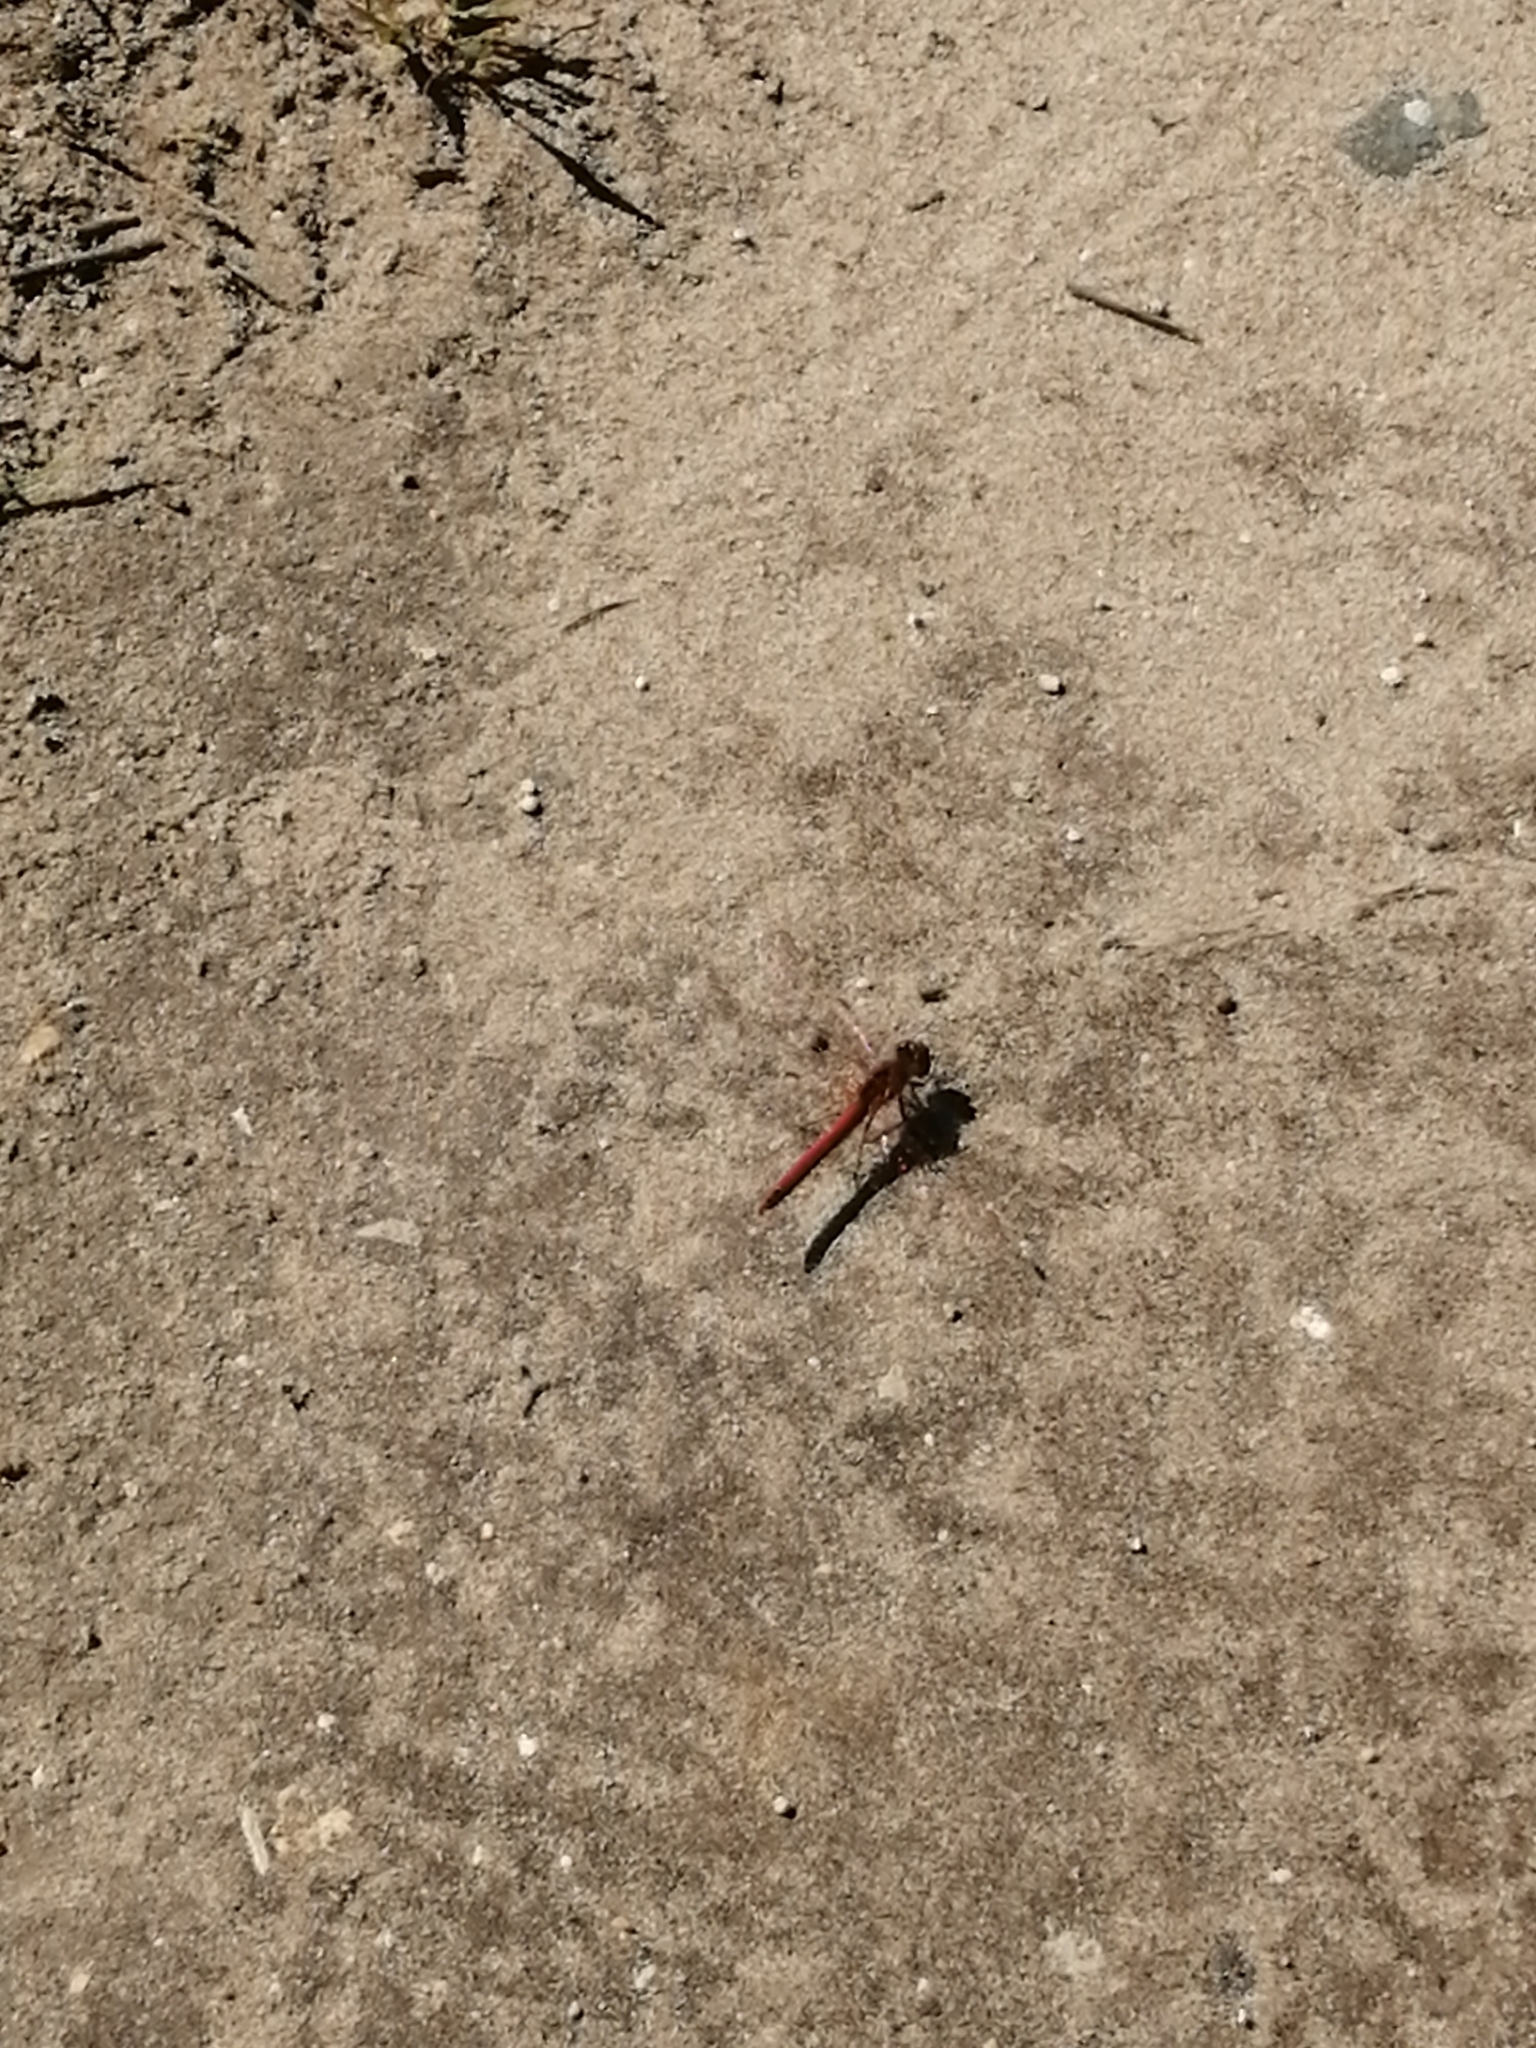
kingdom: Animalia
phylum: Arthropoda
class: Insecta
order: Odonata
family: Libellulidae
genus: Sympetrum
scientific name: Sympetrum fonscolombii
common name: Red-veined darter
